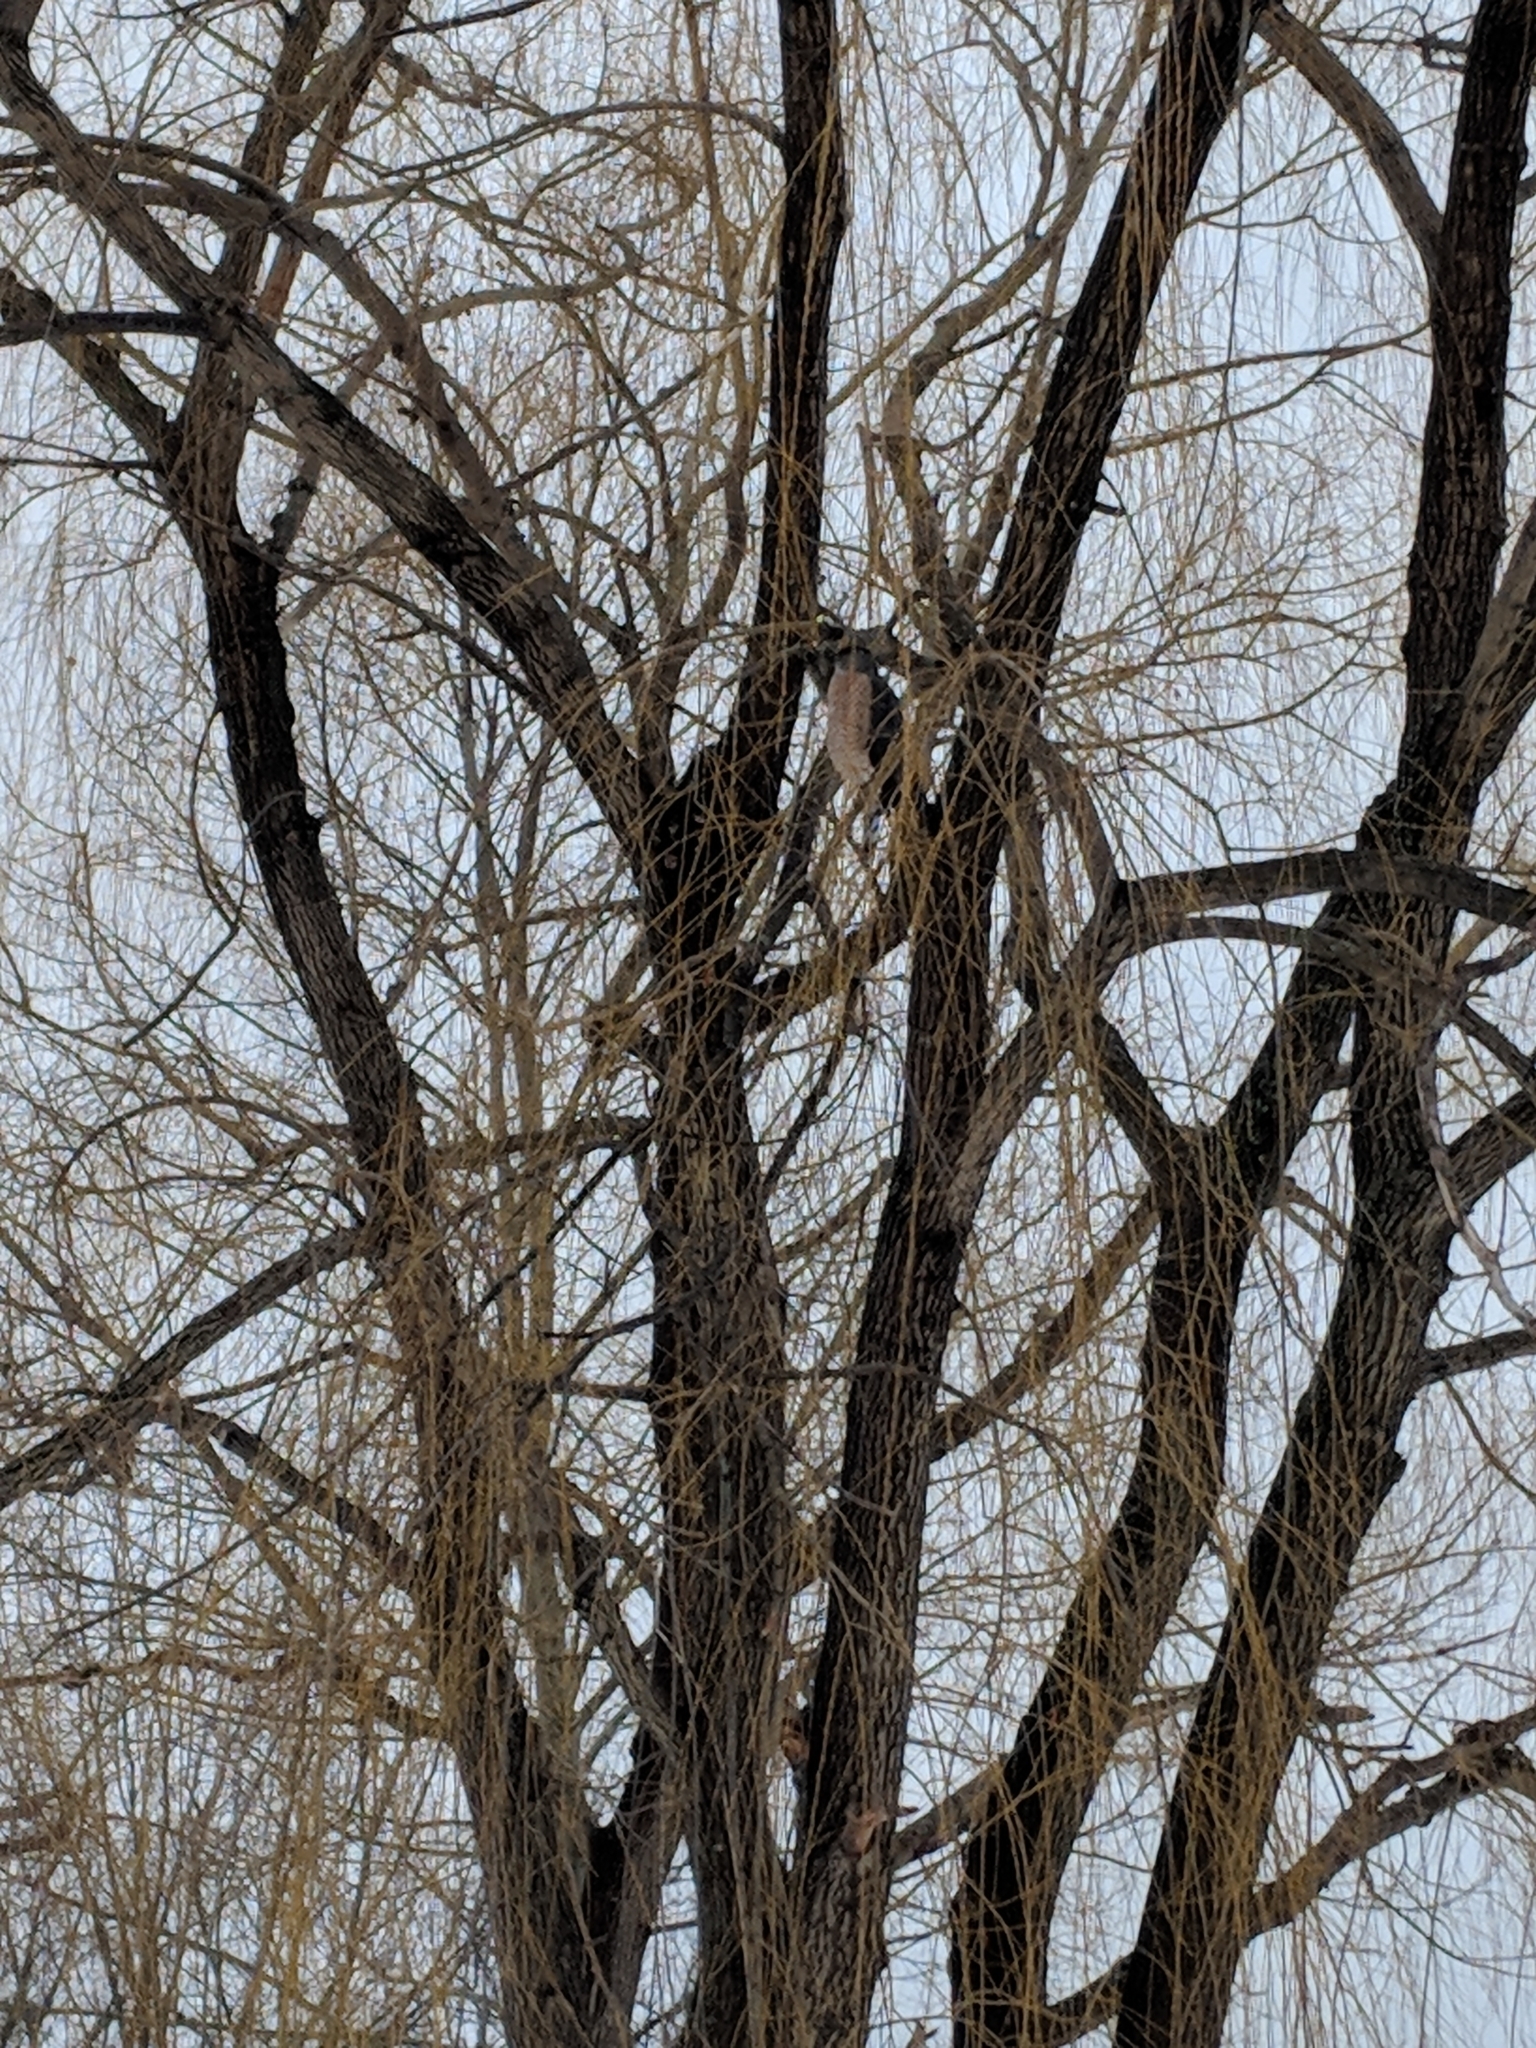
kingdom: Animalia
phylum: Chordata
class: Aves
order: Accipitriformes
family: Accipitridae
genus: Accipiter
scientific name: Accipiter cooperii
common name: Cooper's hawk
